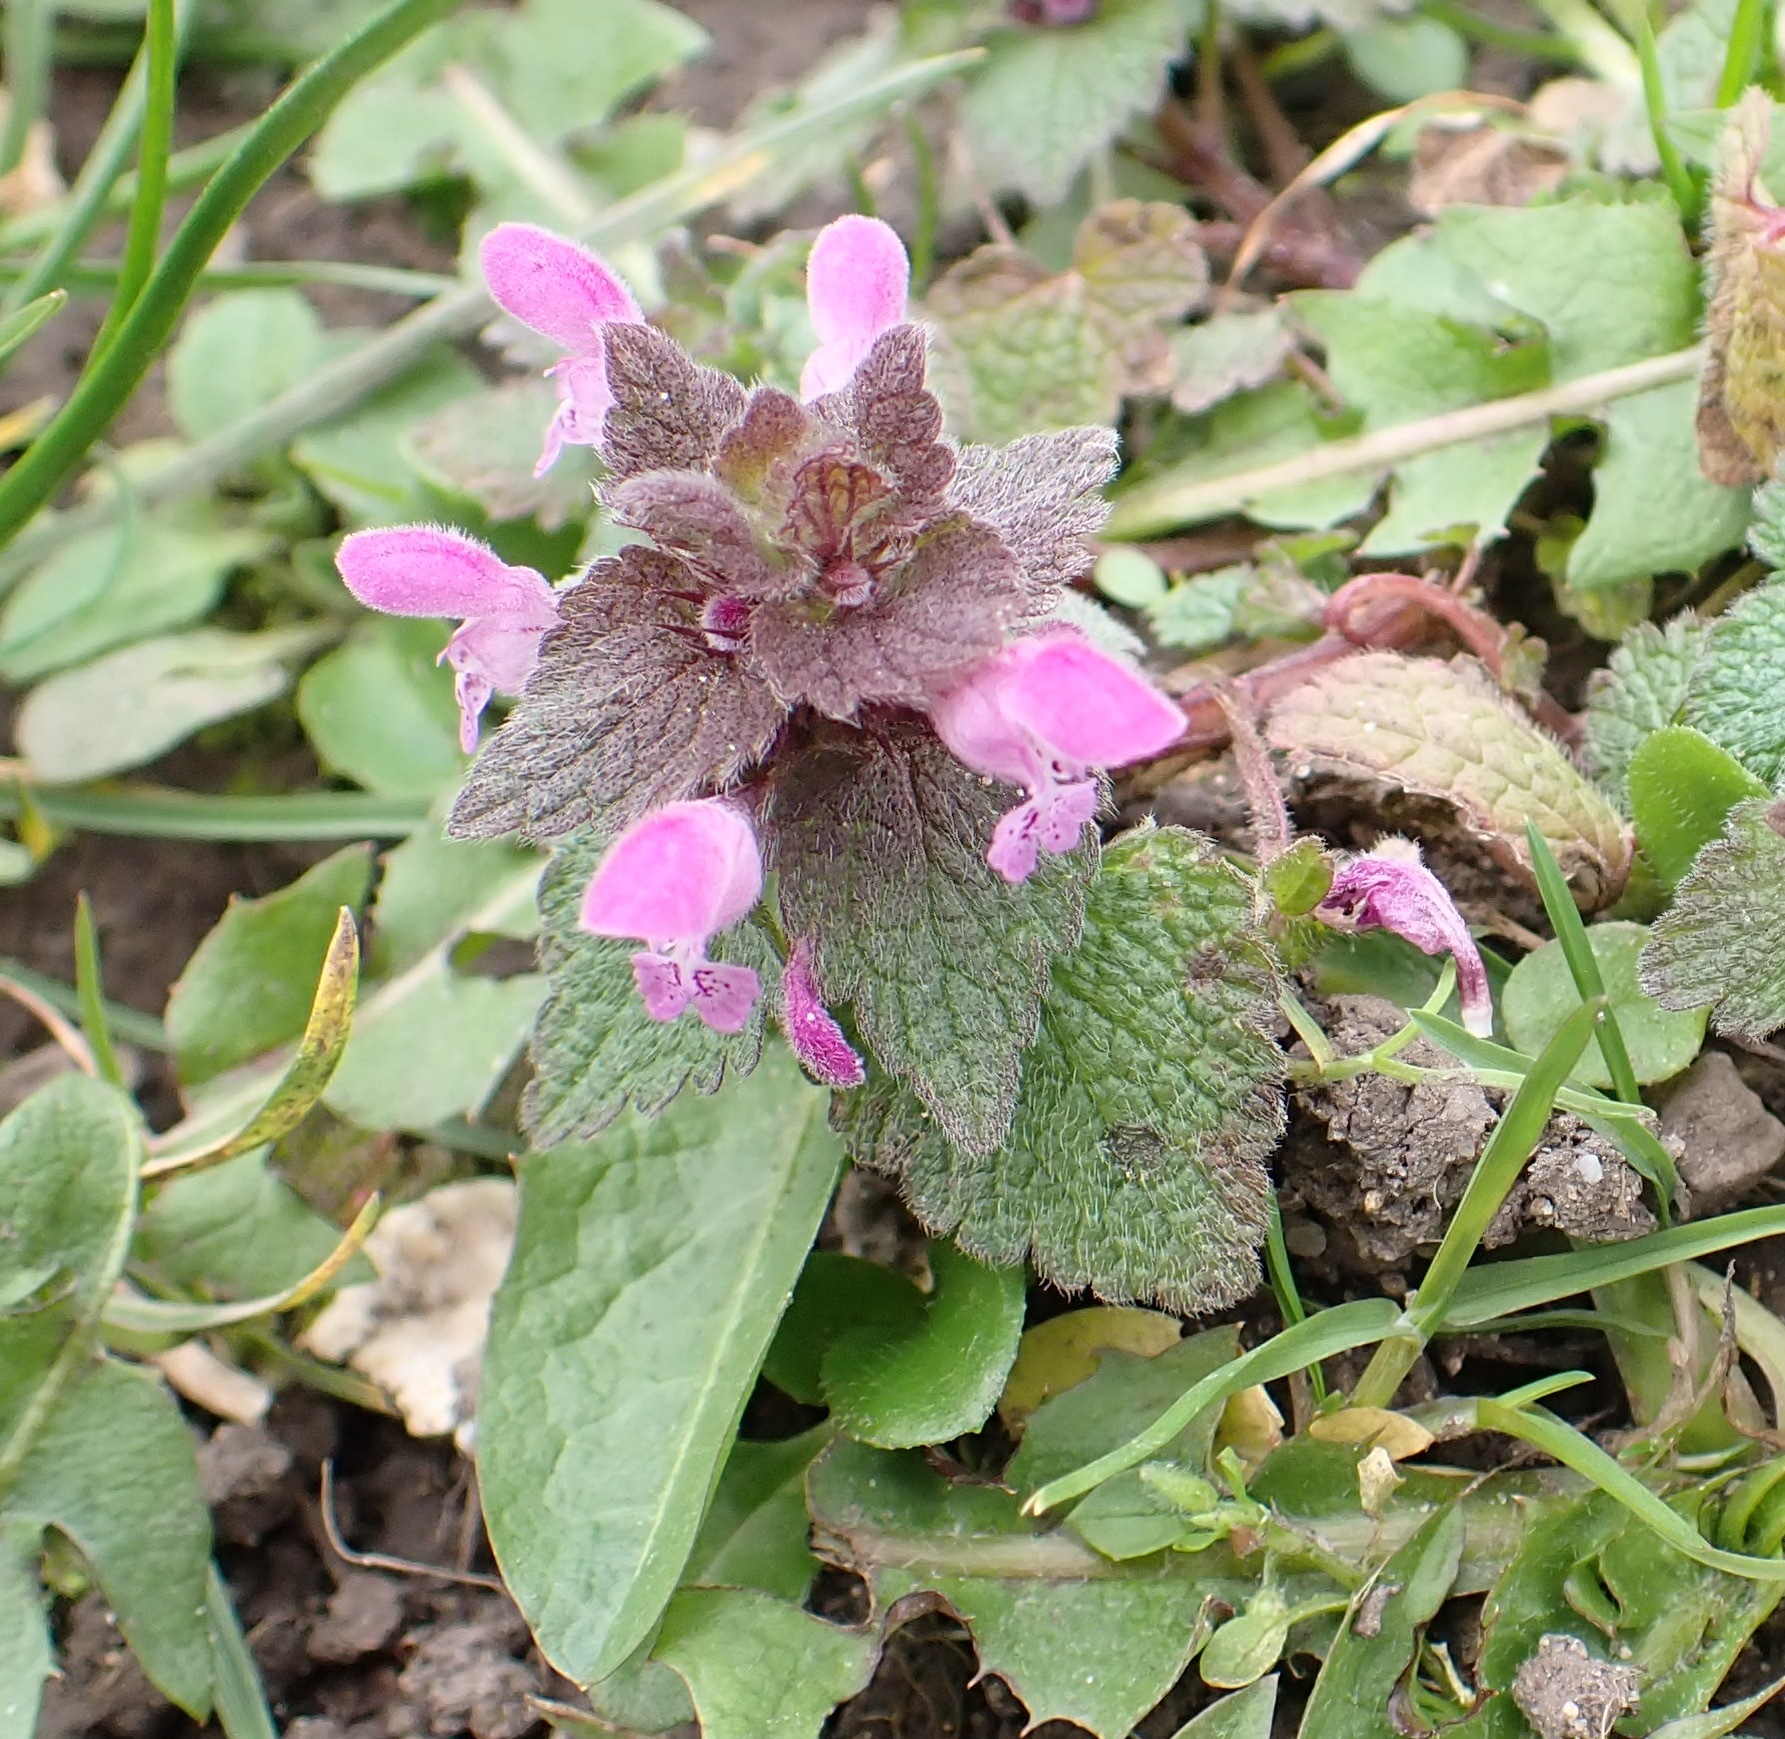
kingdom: Plantae
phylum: Tracheophyta
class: Magnoliopsida
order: Lamiales
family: Lamiaceae
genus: Lamium
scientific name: Lamium purpureum
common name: Red dead-nettle
